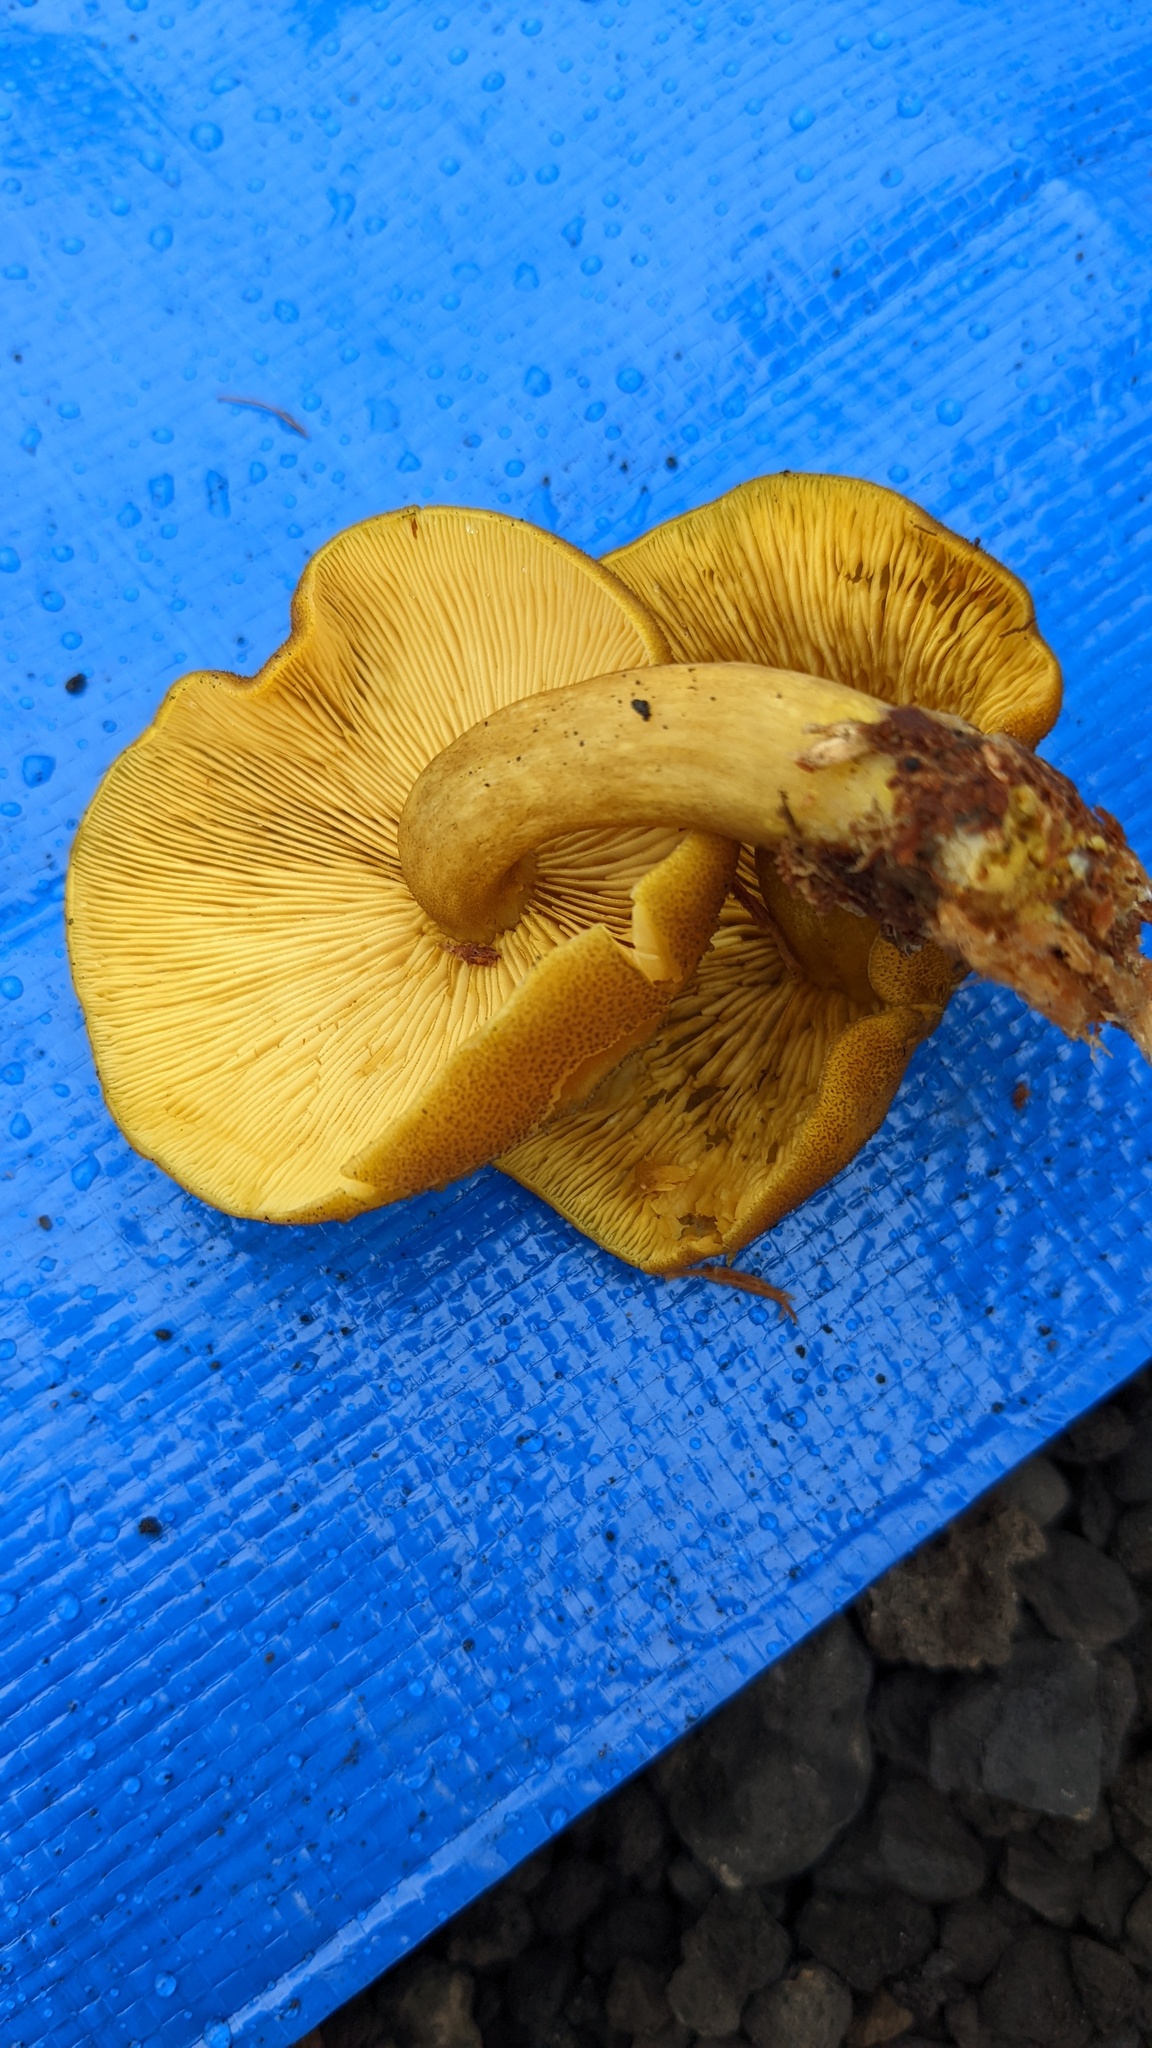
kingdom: Fungi
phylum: Basidiomycota
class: Agaricomycetes
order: Agaricales
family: Tricholomataceae
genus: Tricholomopsis
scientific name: Tricholomopsis decora
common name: Prunes and custard
